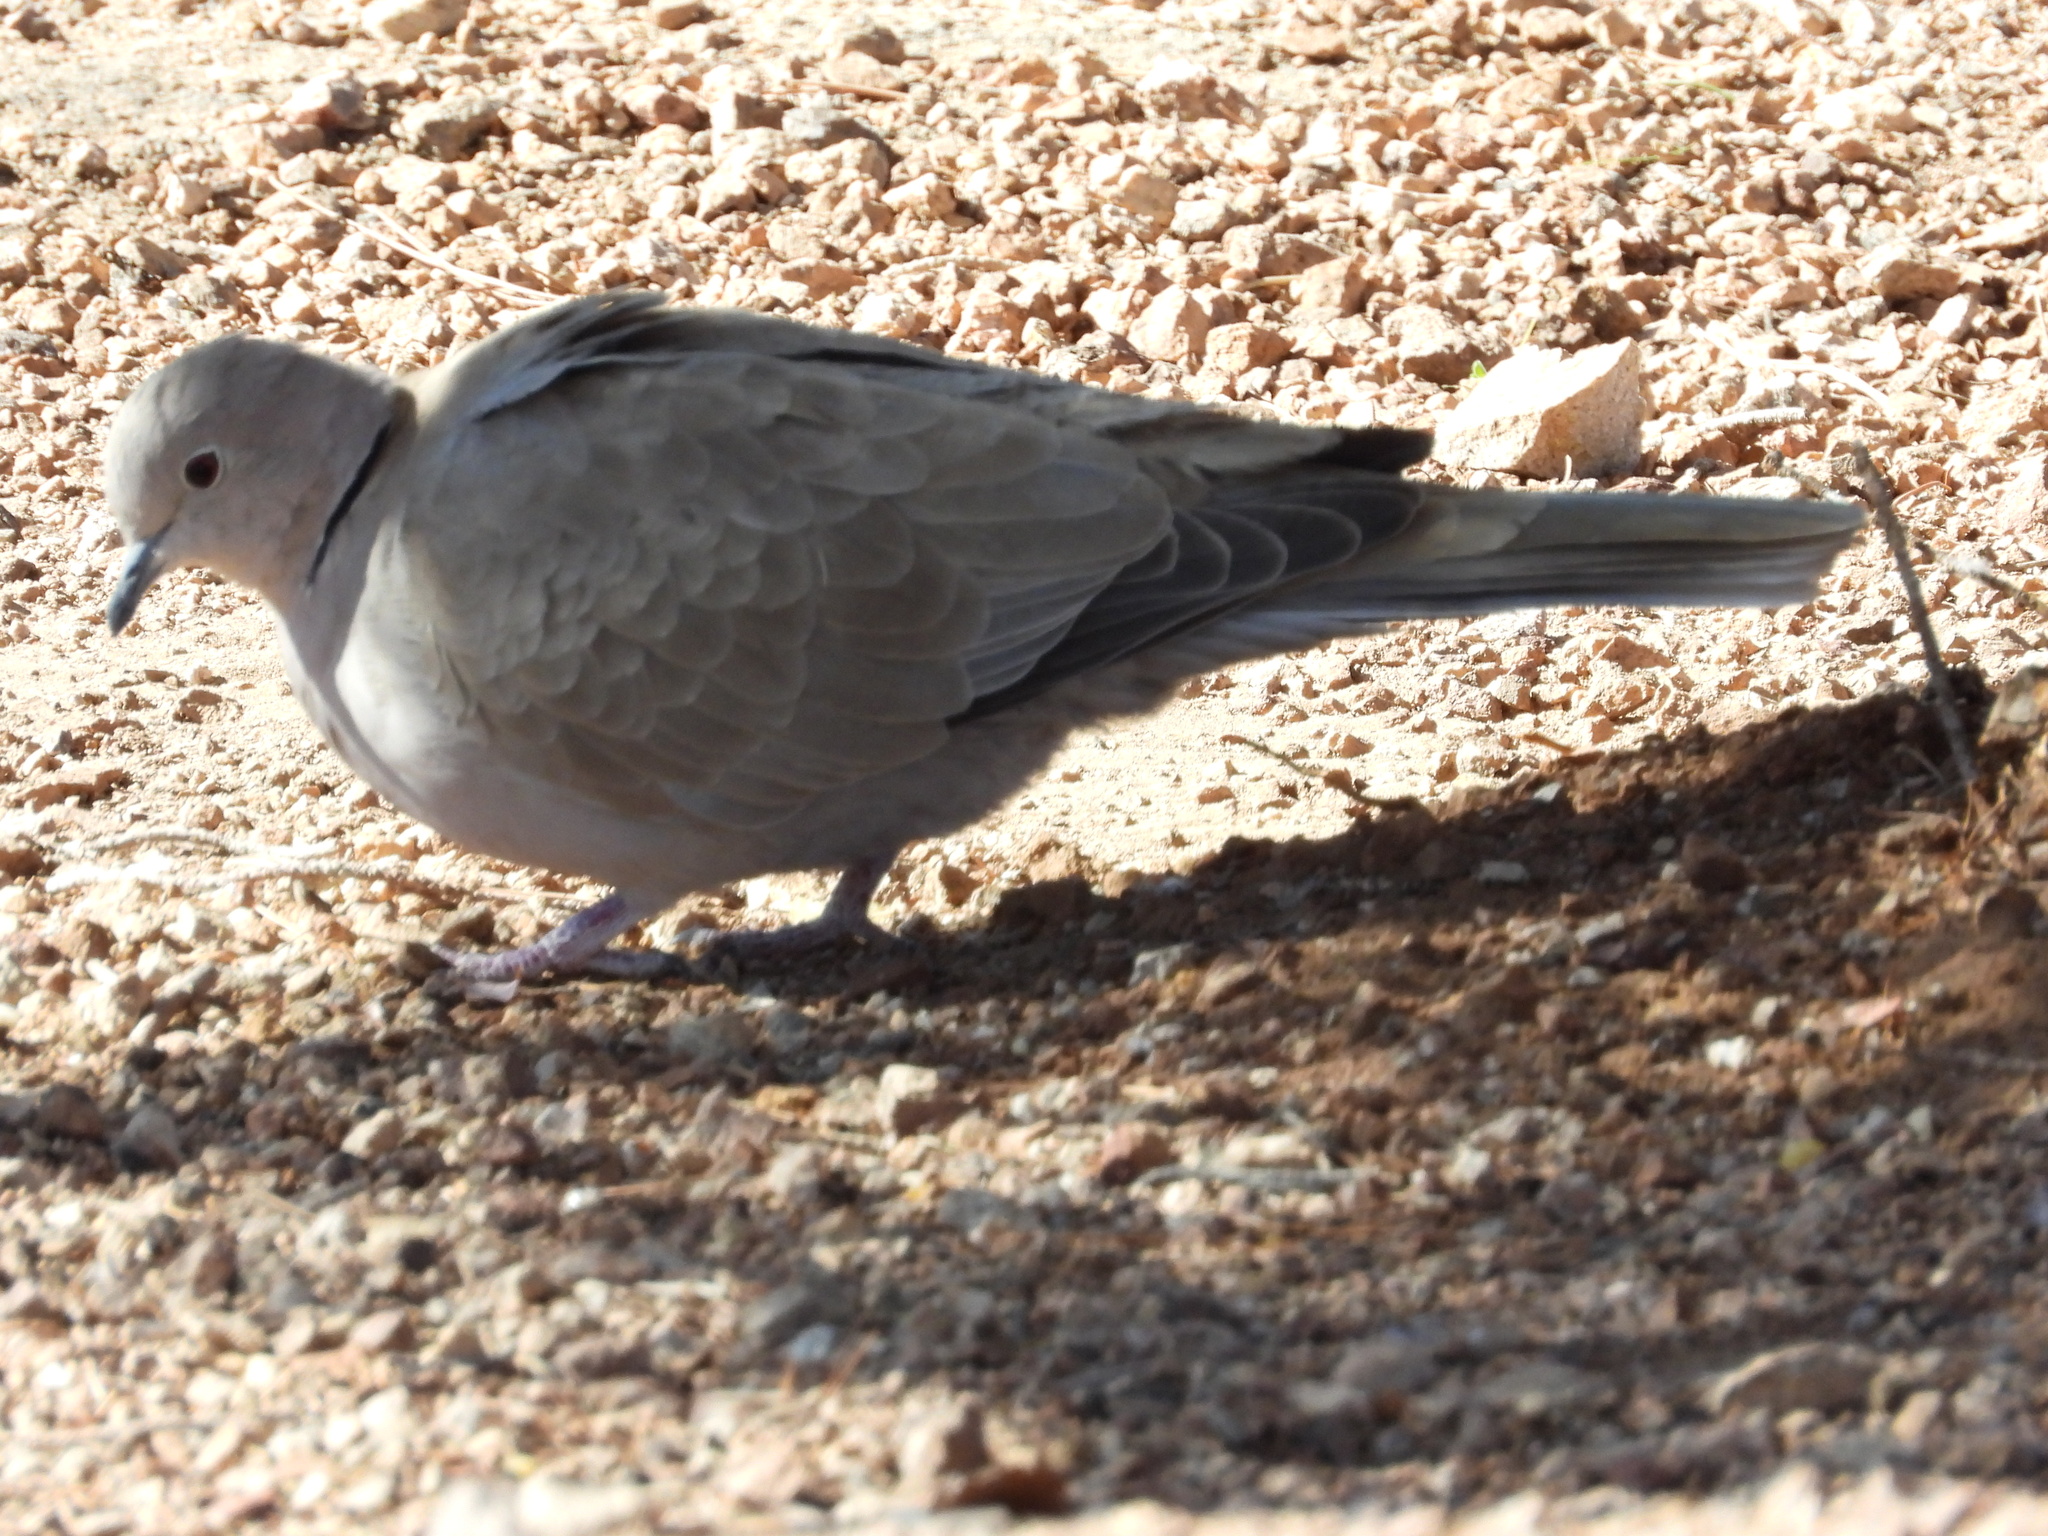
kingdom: Animalia
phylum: Chordata
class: Aves
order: Columbiformes
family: Columbidae
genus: Streptopelia
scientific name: Streptopelia decaocto
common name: Eurasian collared dove
